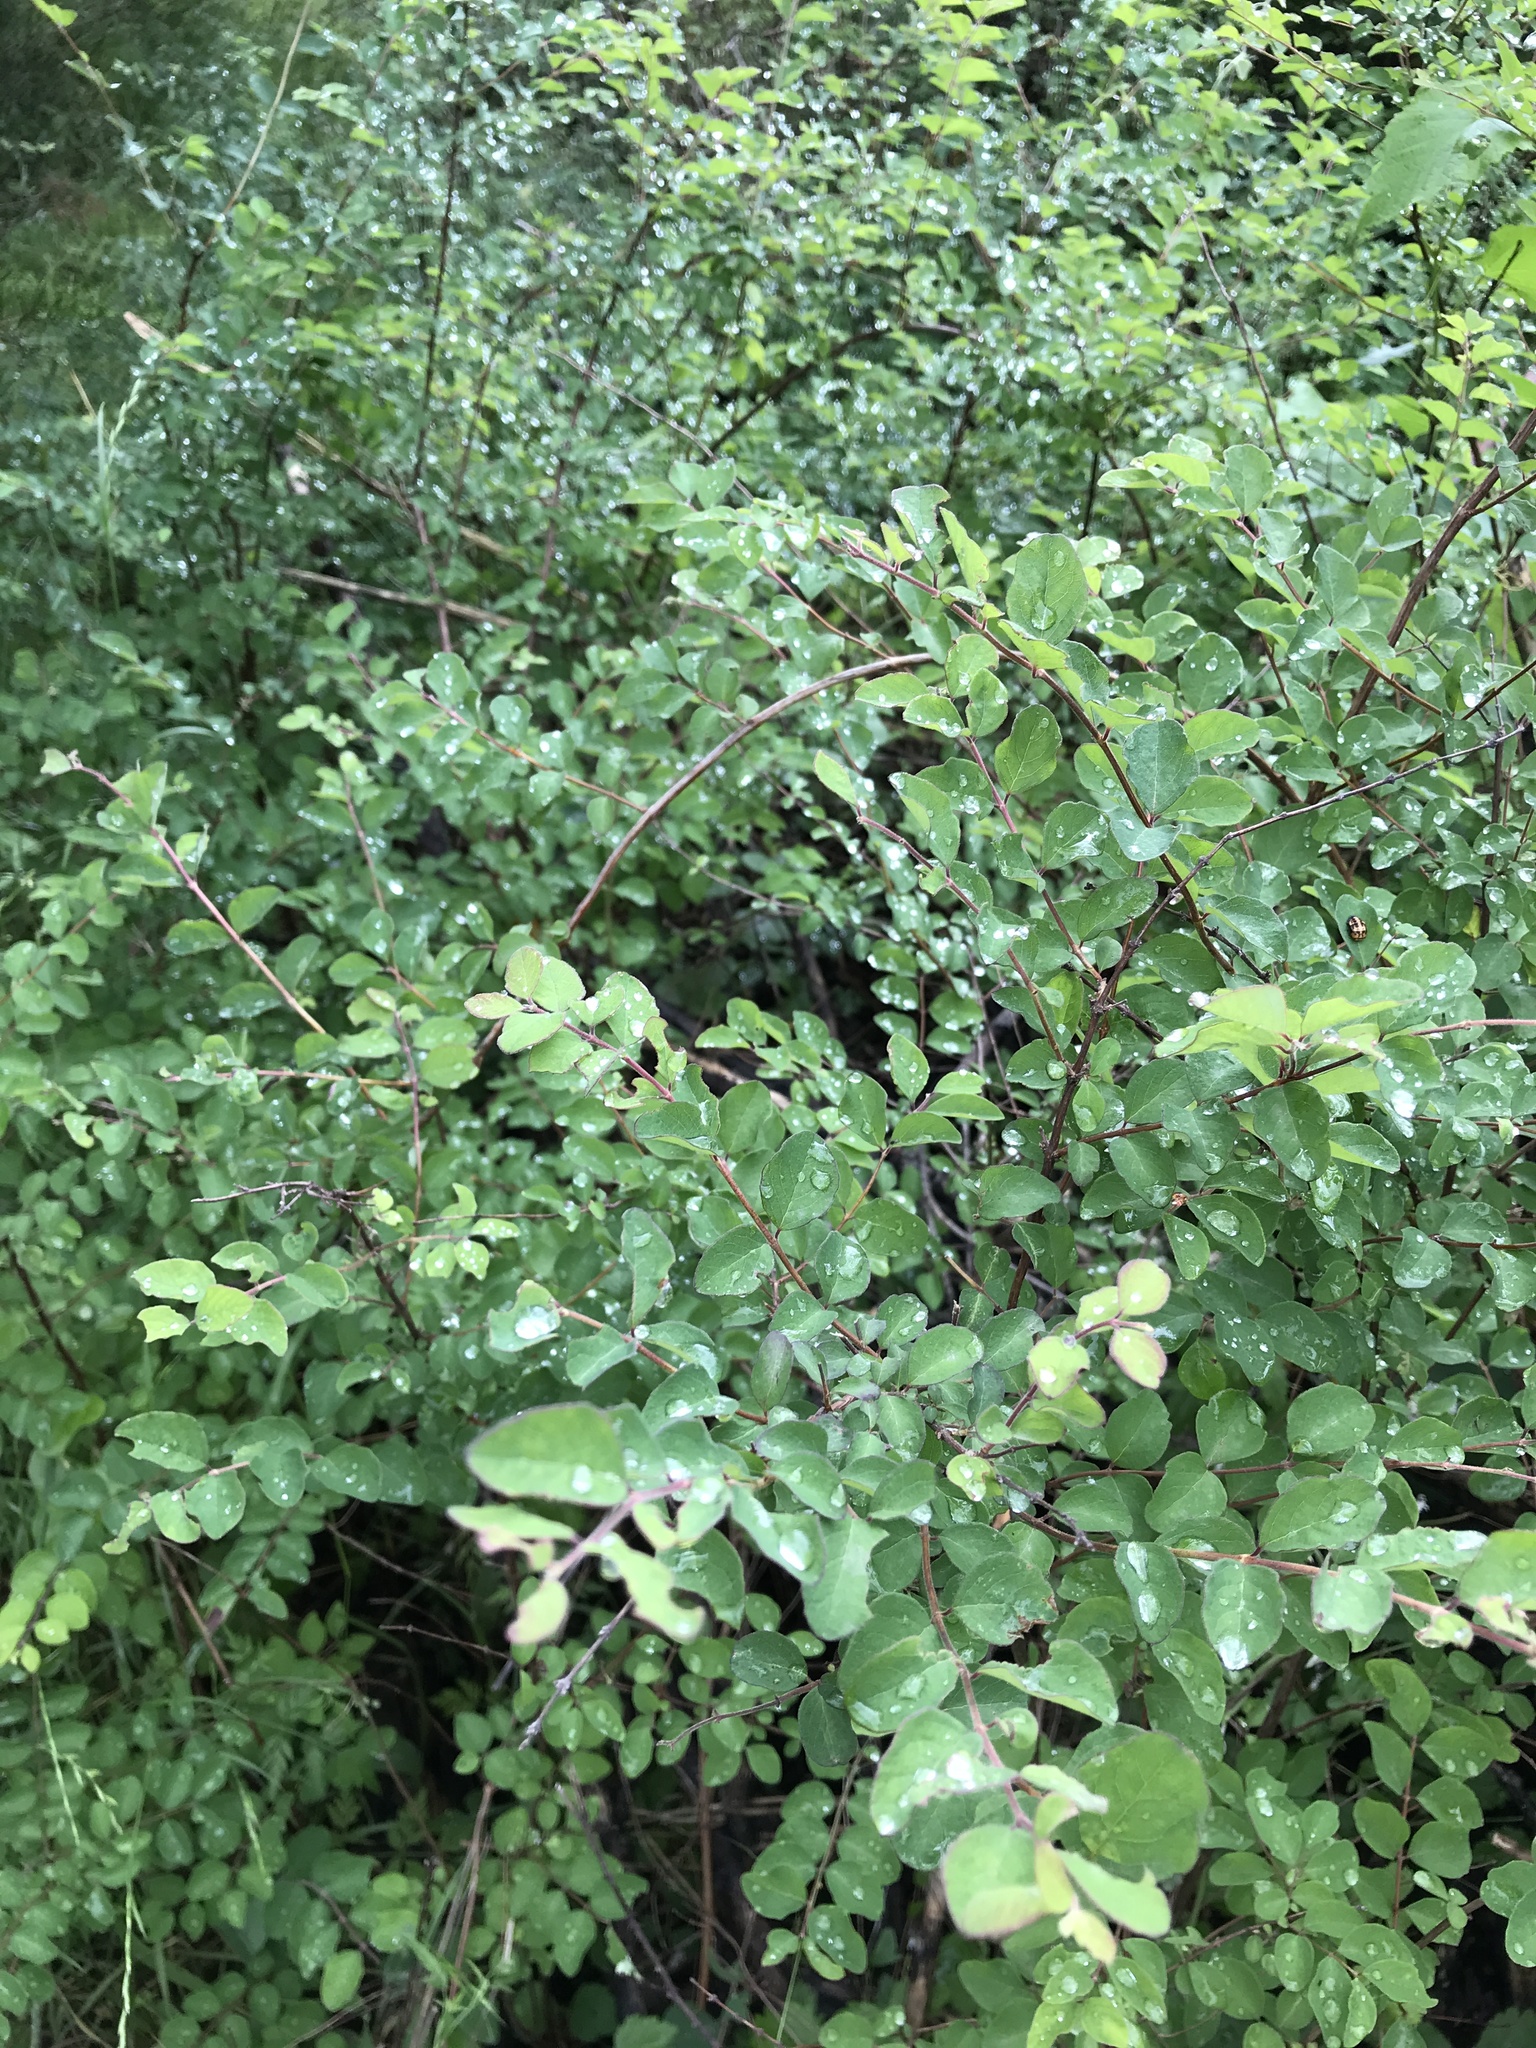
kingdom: Plantae
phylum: Tracheophyta
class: Magnoliopsida
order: Dipsacales
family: Caprifoliaceae
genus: Symphoricarpos
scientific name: Symphoricarpos orbiculatus
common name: Coralberry
